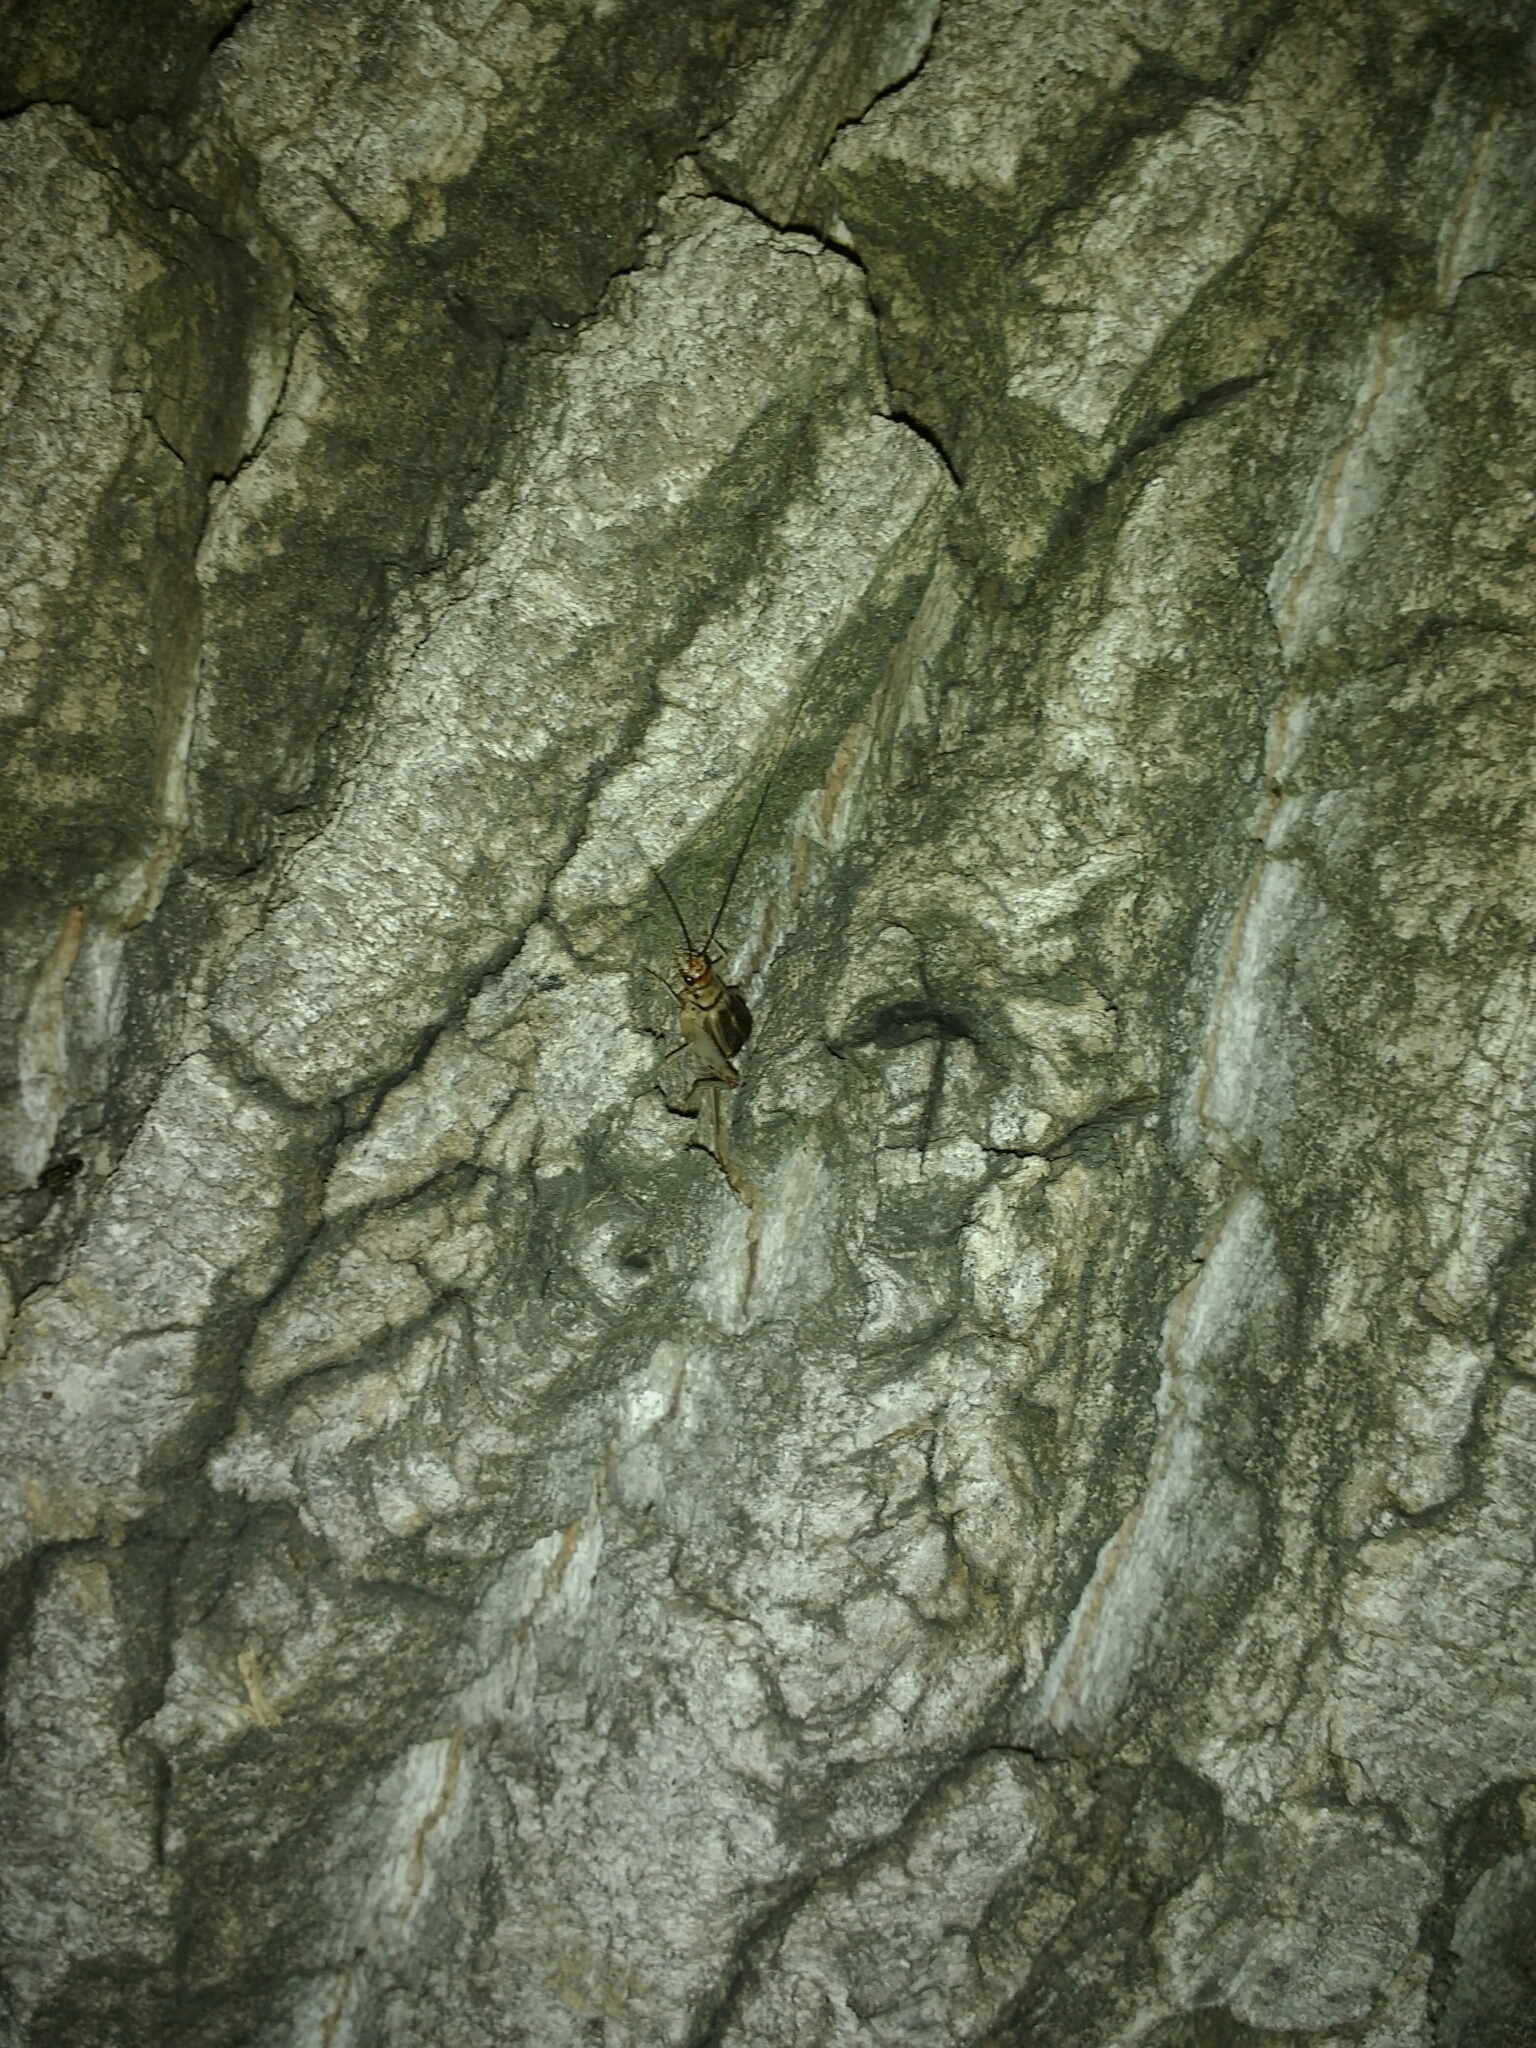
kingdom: Animalia
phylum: Arthropoda
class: Insecta
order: Orthoptera
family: Gryllidae
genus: Gryllodes
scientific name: Gryllodes sigillatus
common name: Tropical house cricket
